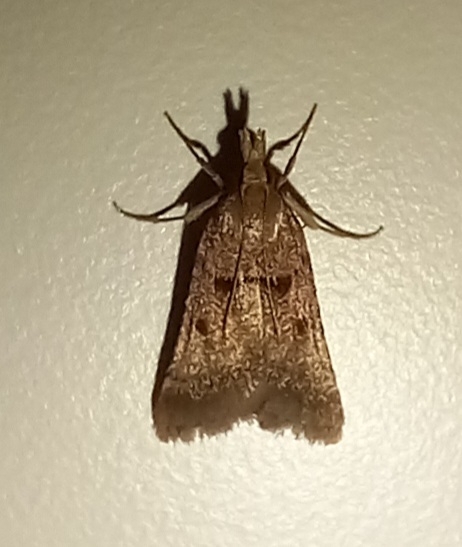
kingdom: Animalia
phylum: Arthropoda
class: Insecta
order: Lepidoptera
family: Pyralidae
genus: Stemmatophora
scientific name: Stemmatophora brunnealis
